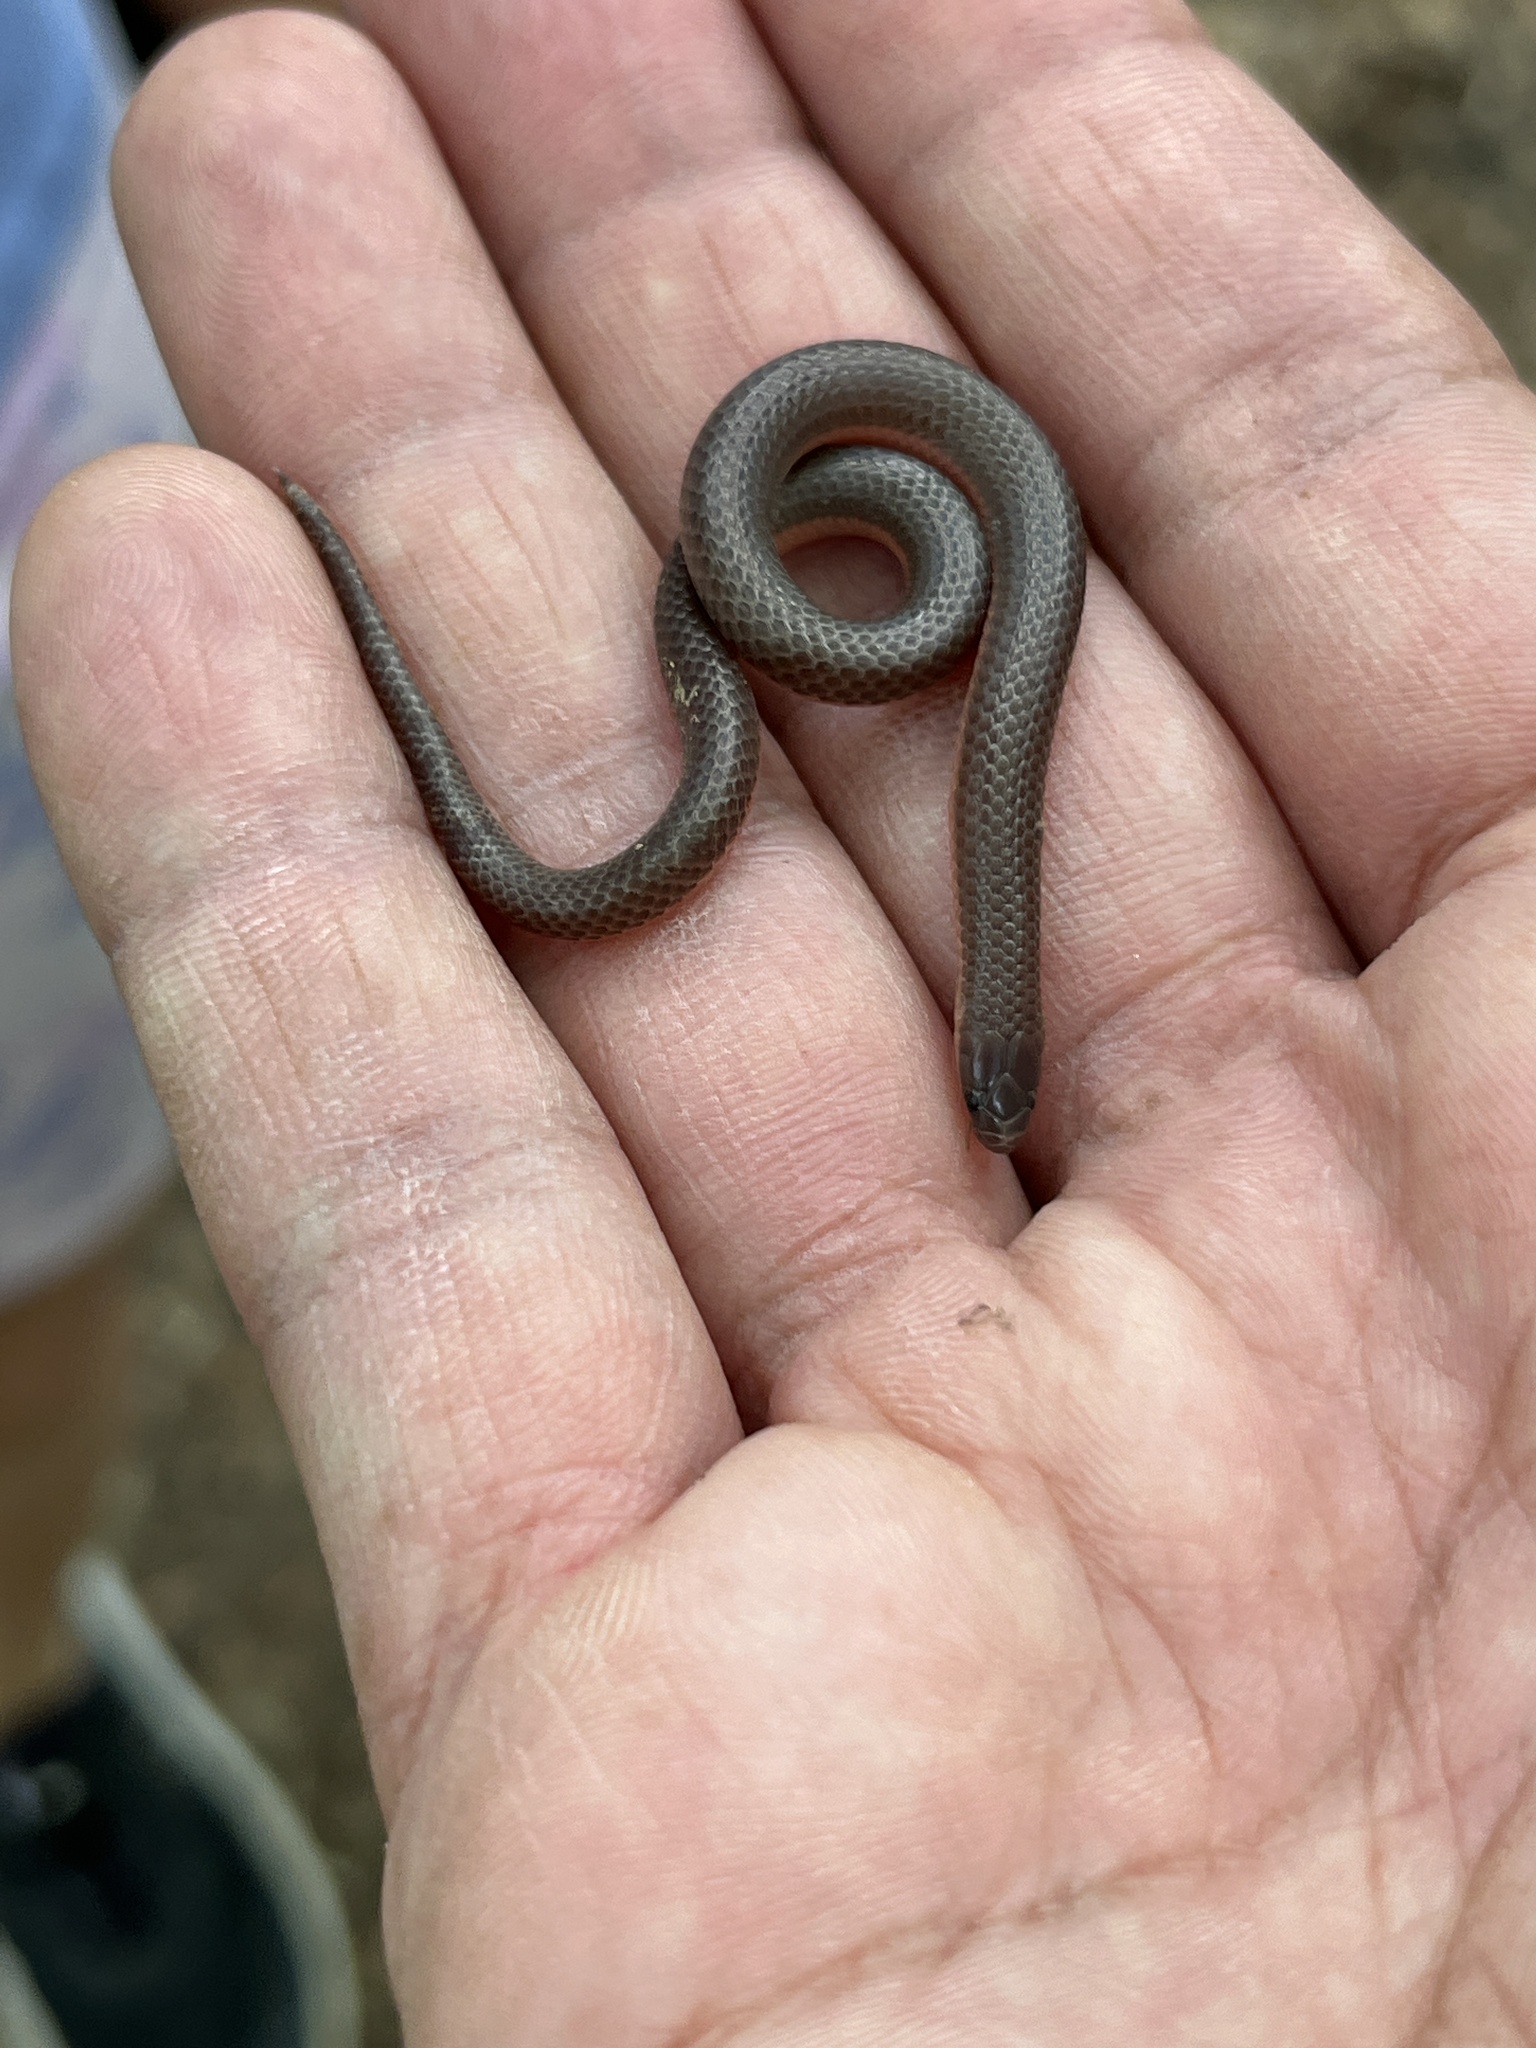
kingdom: Animalia
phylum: Chordata
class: Squamata
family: Colubridae
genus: Carphophis
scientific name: Carphophis amoenus
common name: Eastern worm snake
